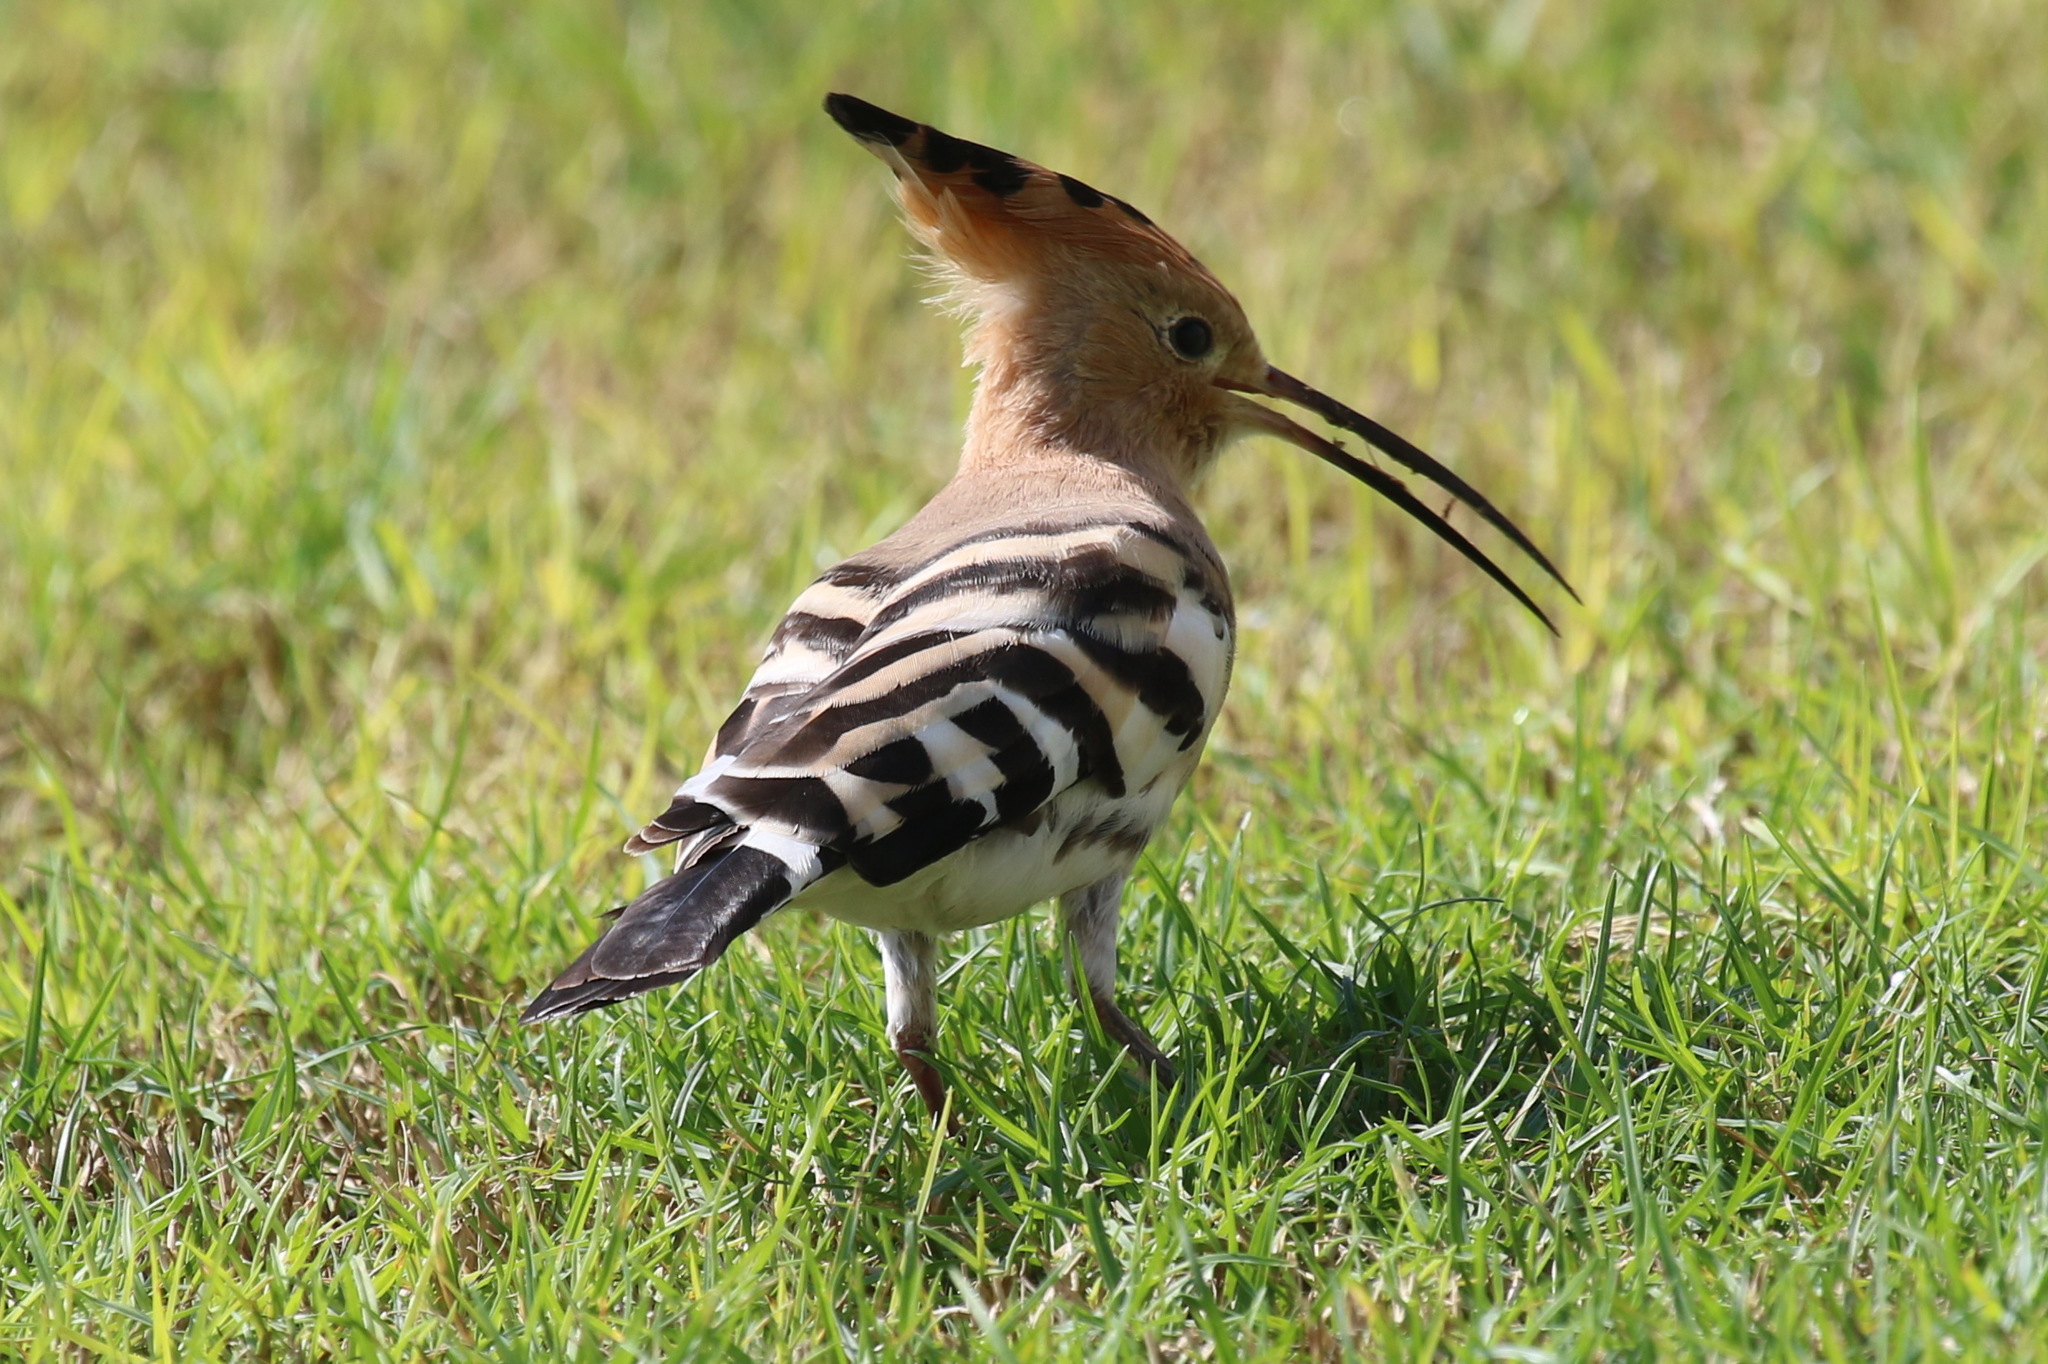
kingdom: Animalia
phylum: Chordata
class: Aves
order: Bucerotiformes
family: Upupidae
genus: Upupa
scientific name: Upupa epops
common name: Eurasian hoopoe
